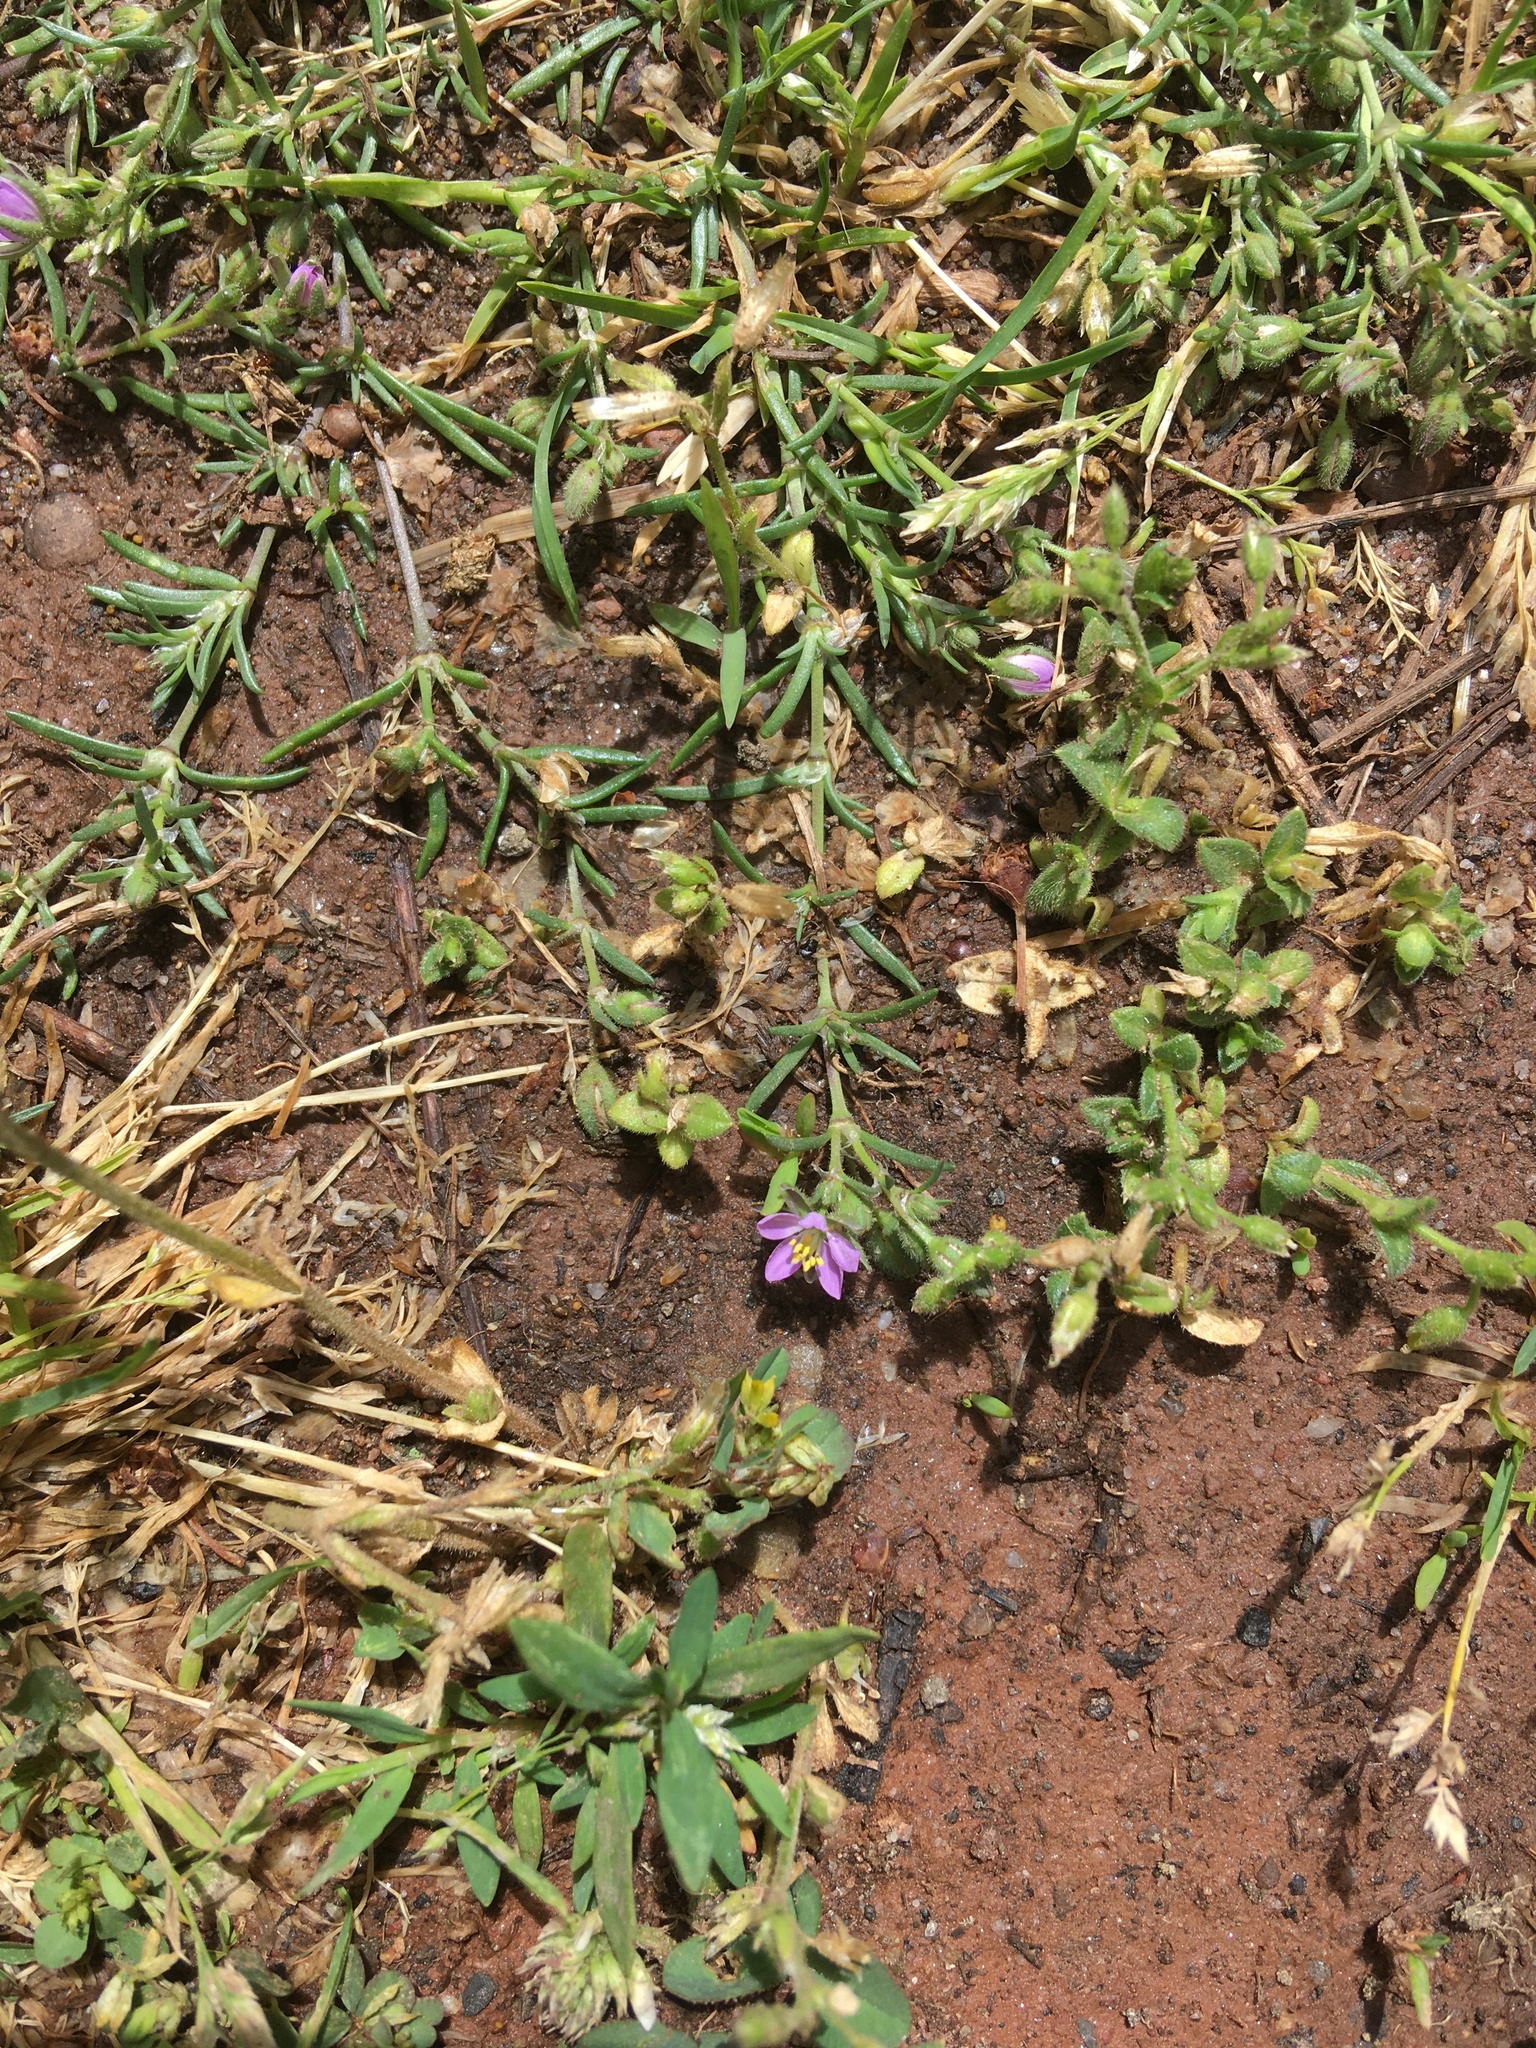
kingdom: Plantae
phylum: Tracheophyta
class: Magnoliopsida
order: Caryophyllales
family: Caryophyllaceae
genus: Spergularia
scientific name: Spergularia rubra
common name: Red sand-spurrey
